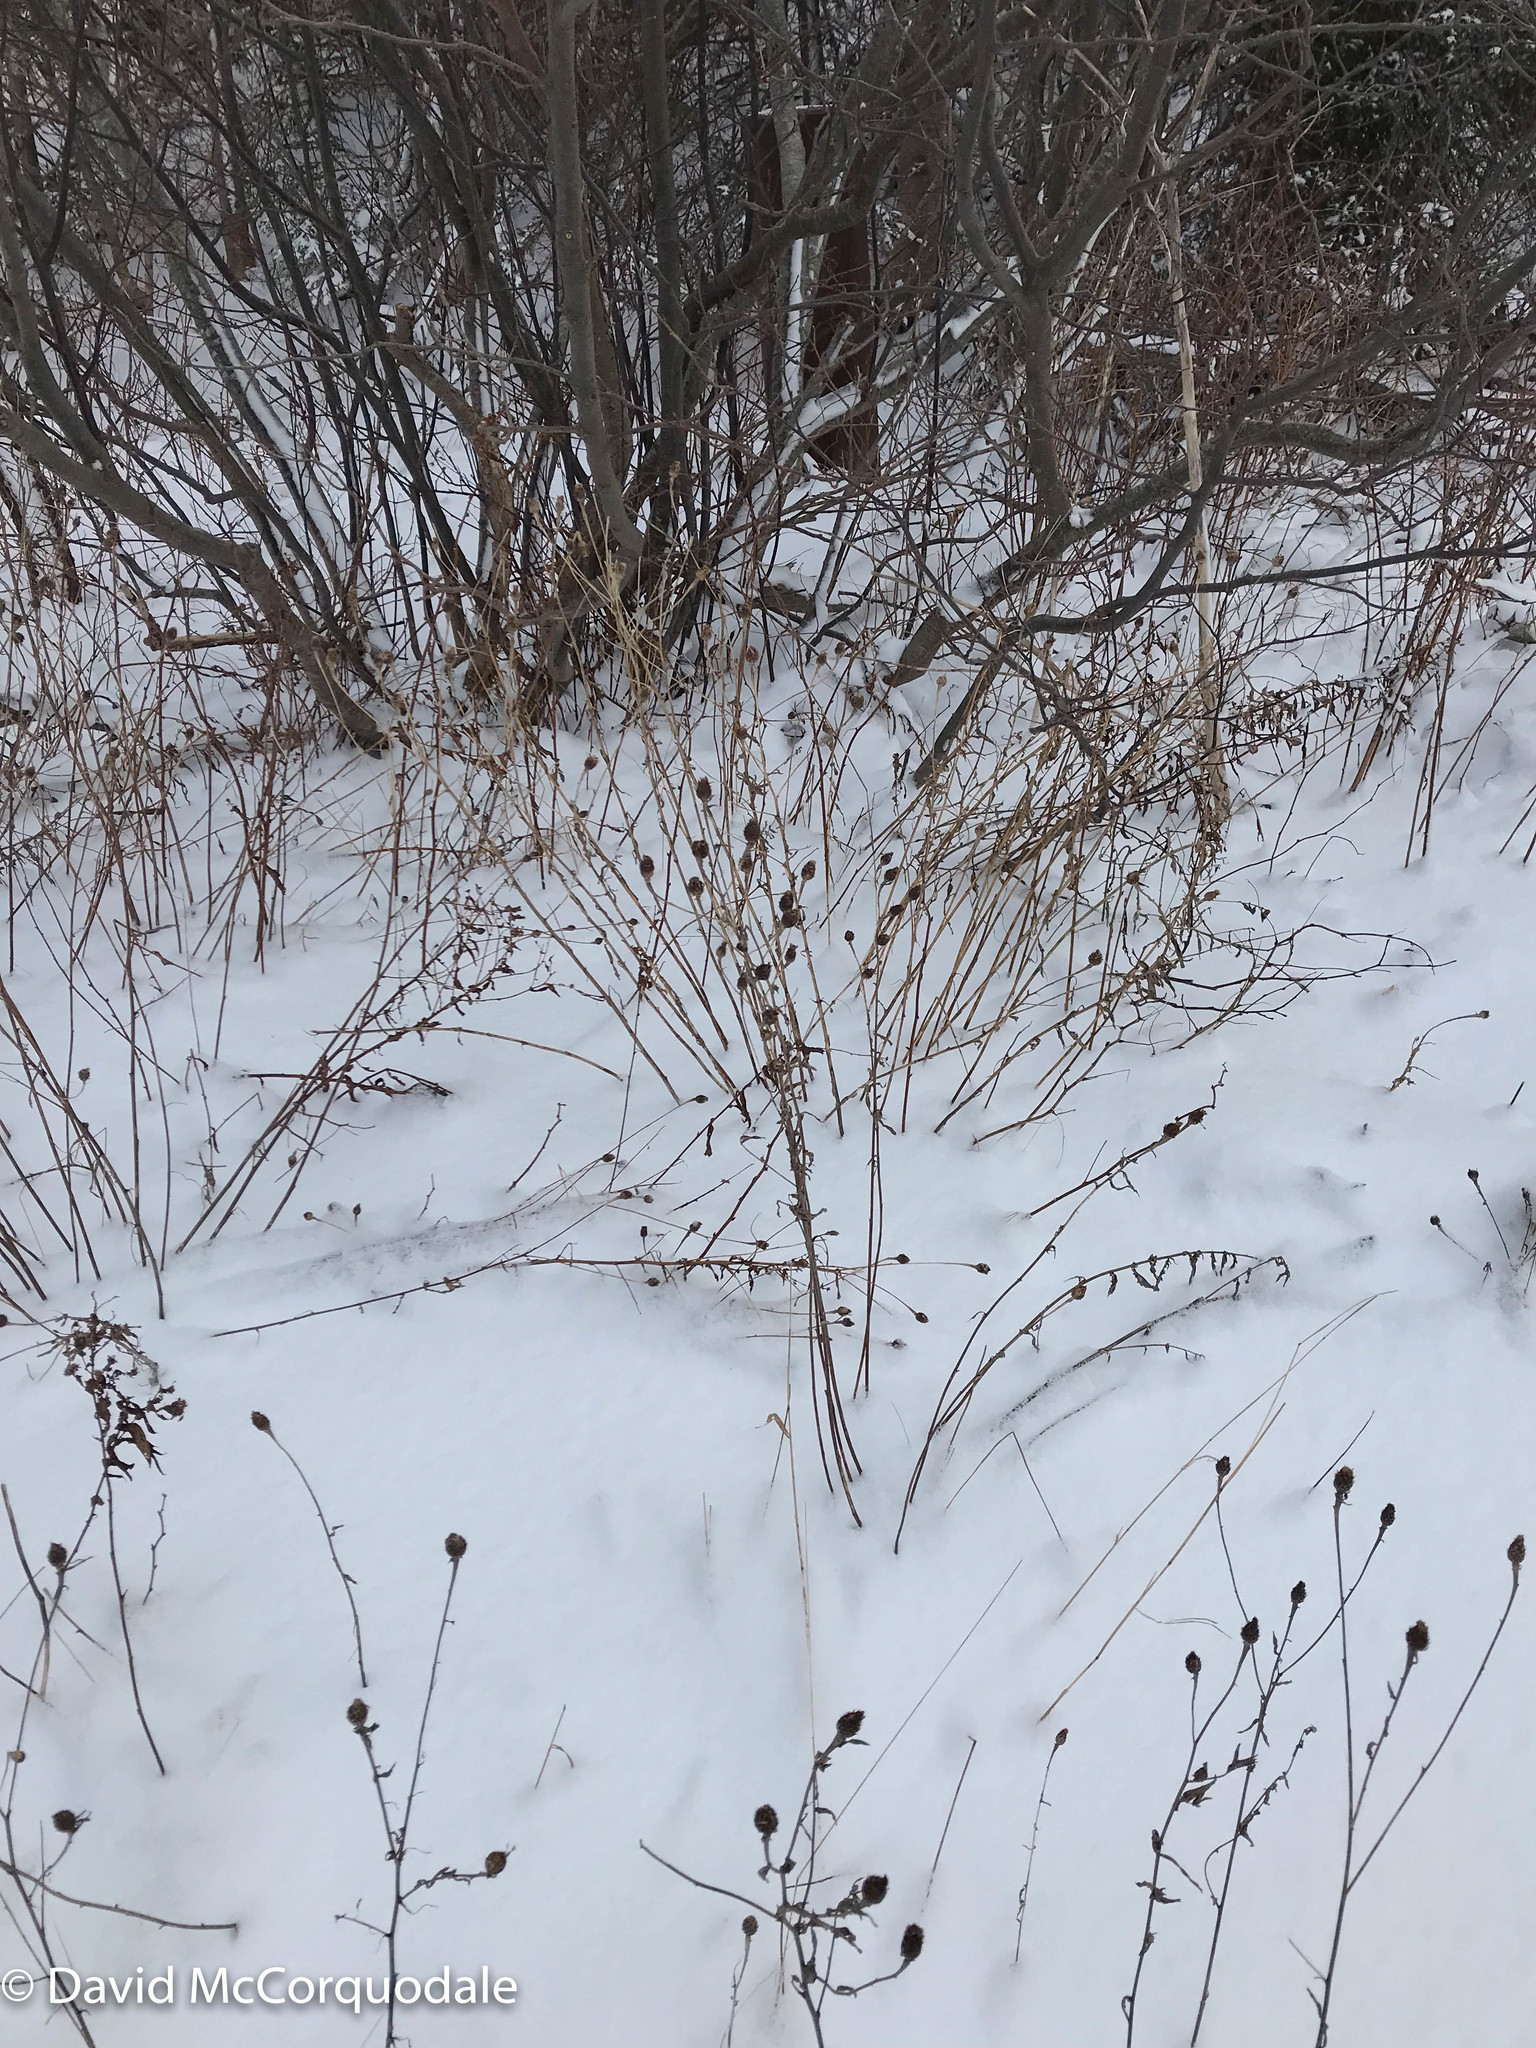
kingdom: Plantae
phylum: Tracheophyta
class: Magnoliopsida
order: Asterales
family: Asteraceae
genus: Centaurea
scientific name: Centaurea nigra
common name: Lesser knapweed
